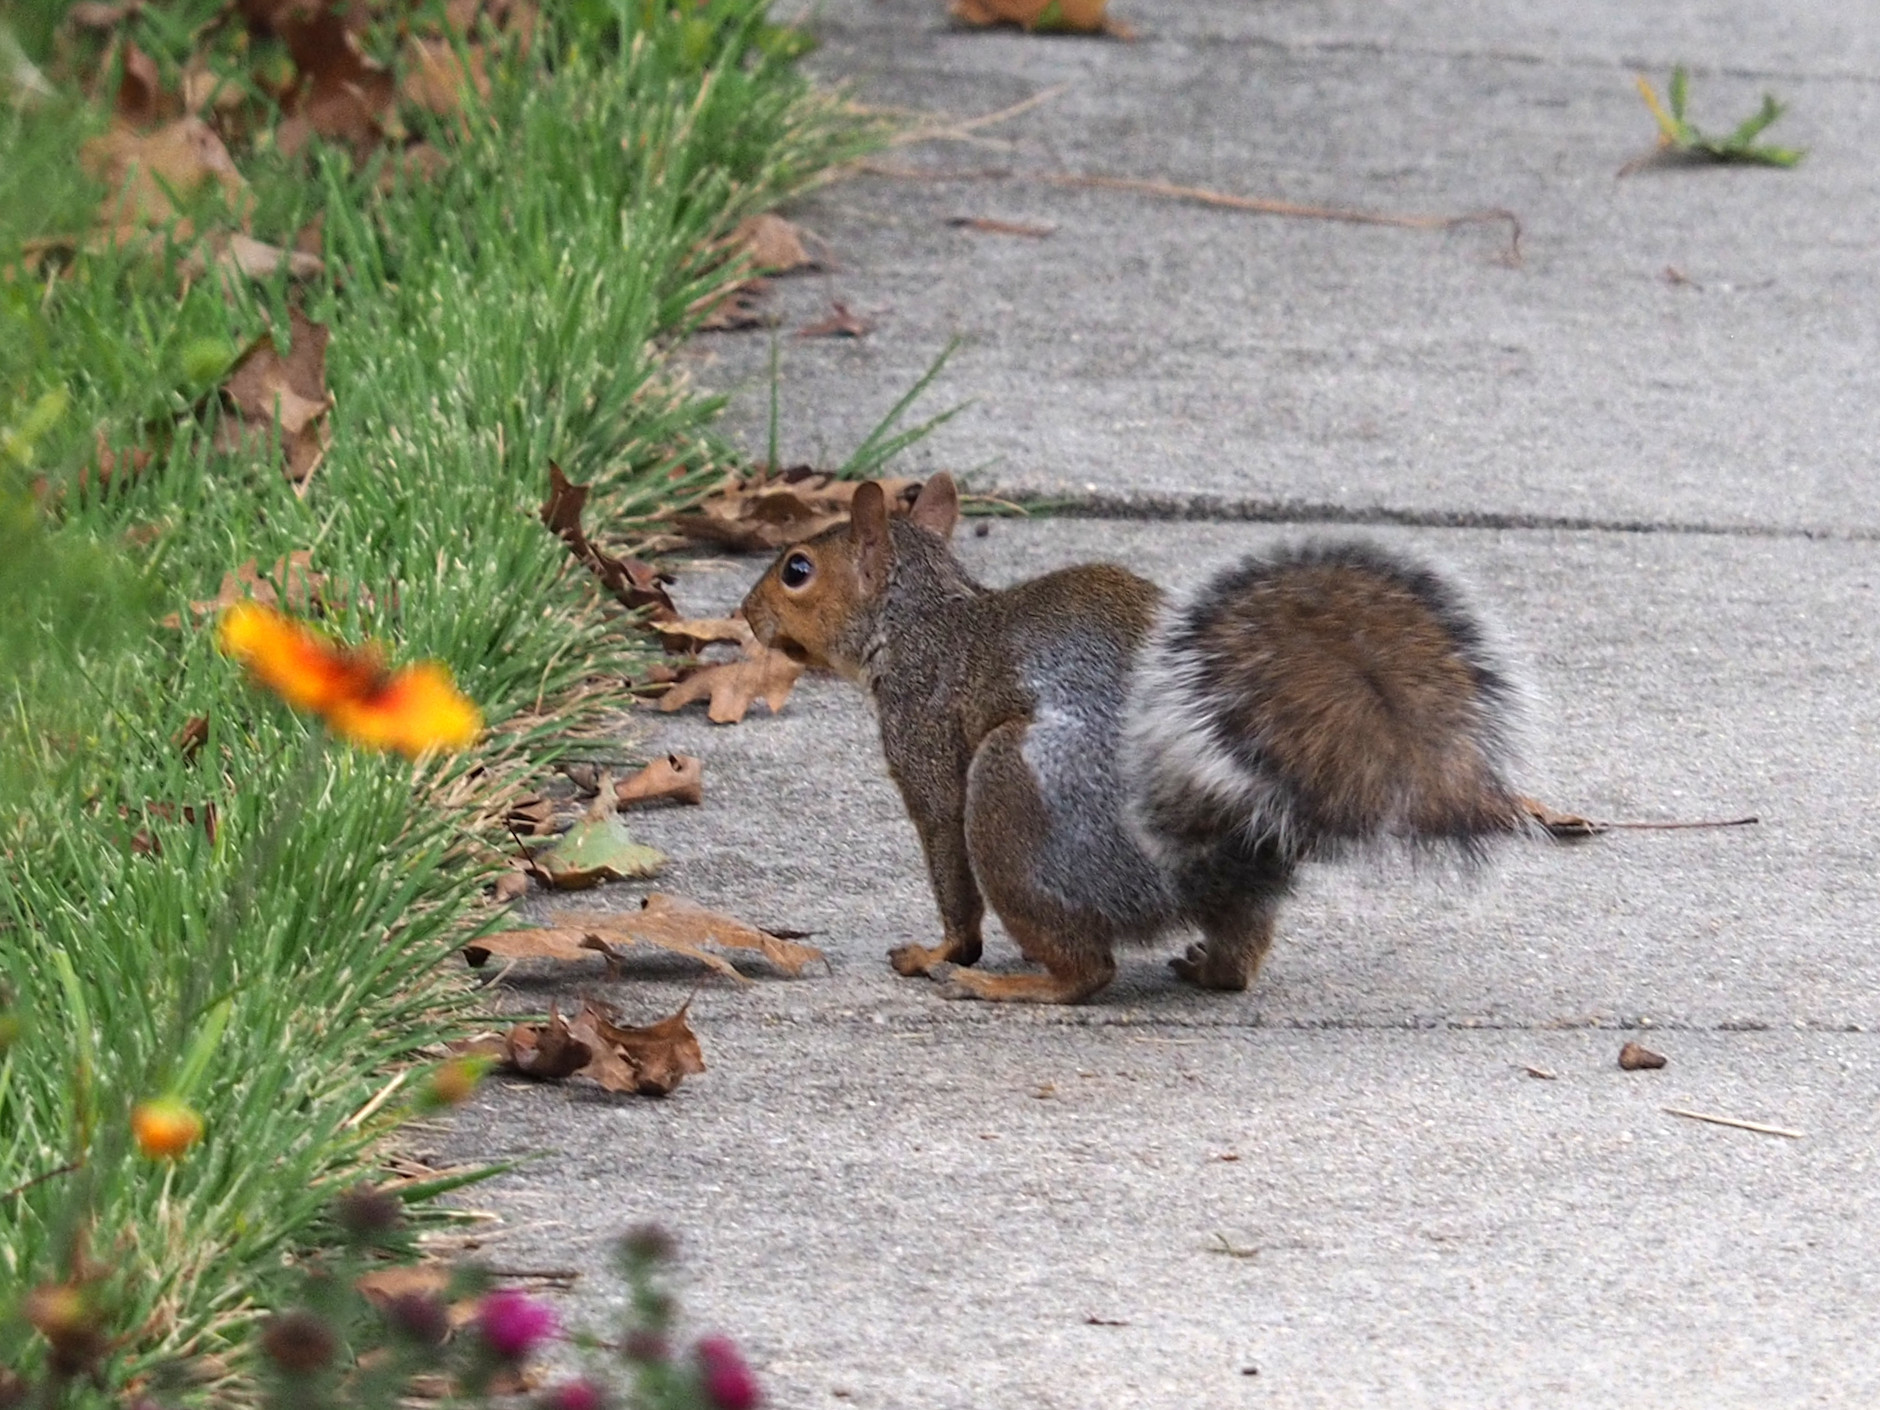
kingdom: Animalia
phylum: Chordata
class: Mammalia
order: Rodentia
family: Sciuridae
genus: Sciurus
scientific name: Sciurus carolinensis
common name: Eastern gray squirrel
